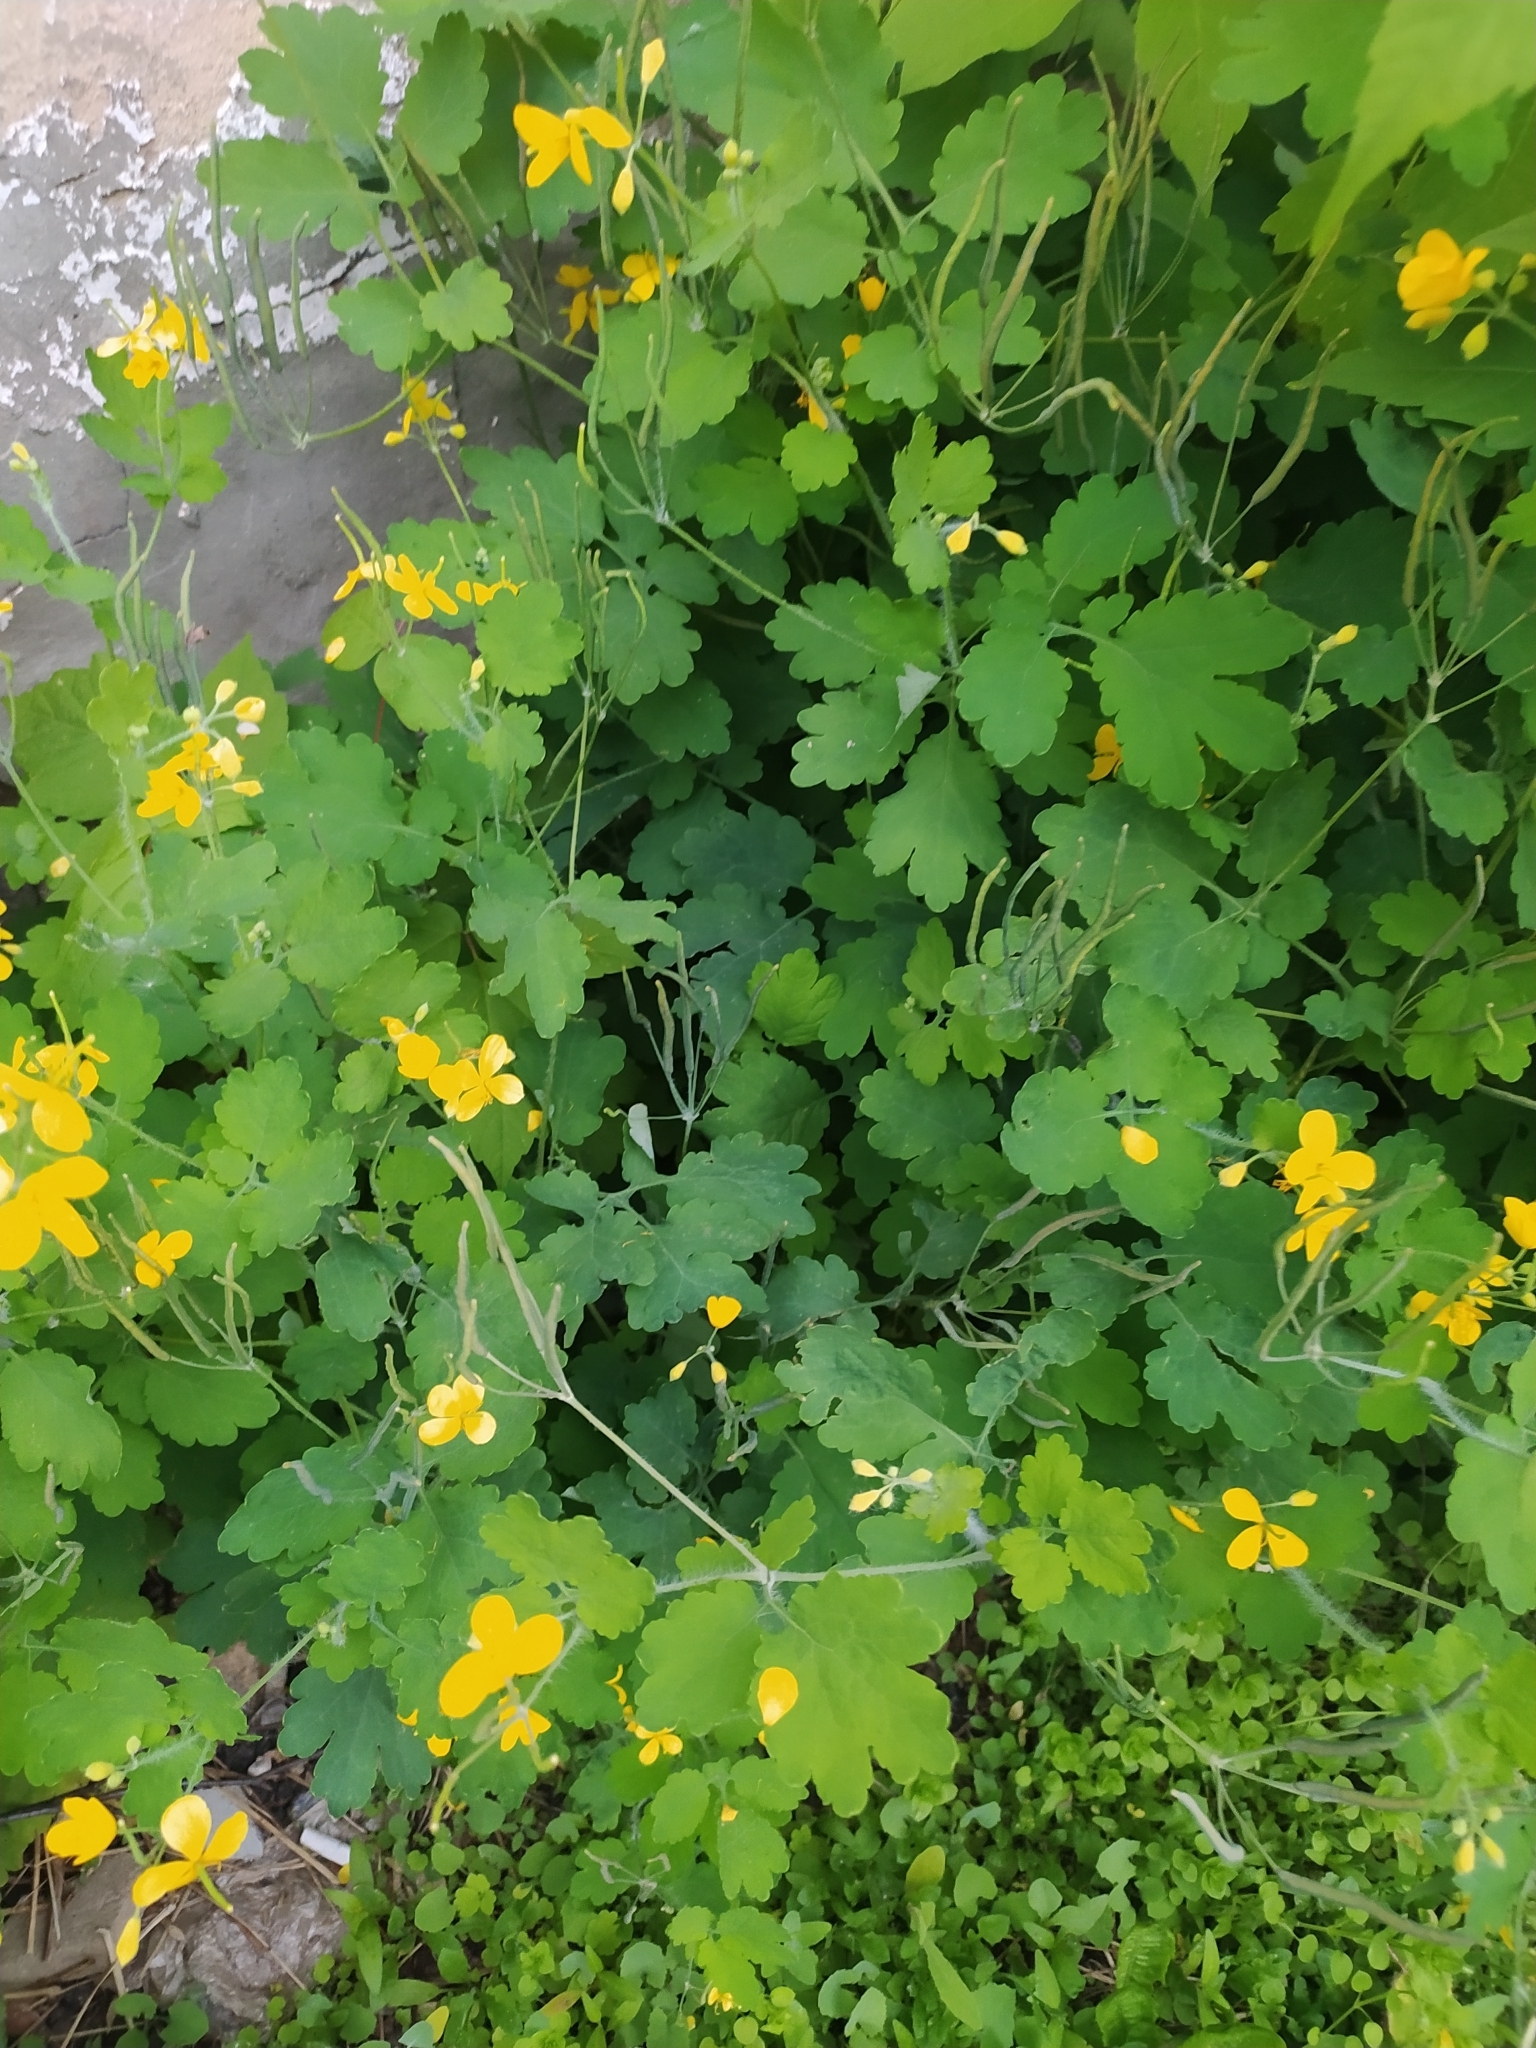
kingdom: Plantae
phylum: Tracheophyta
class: Magnoliopsida
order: Ranunculales
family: Papaveraceae
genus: Chelidonium
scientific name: Chelidonium majus
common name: Greater celandine
